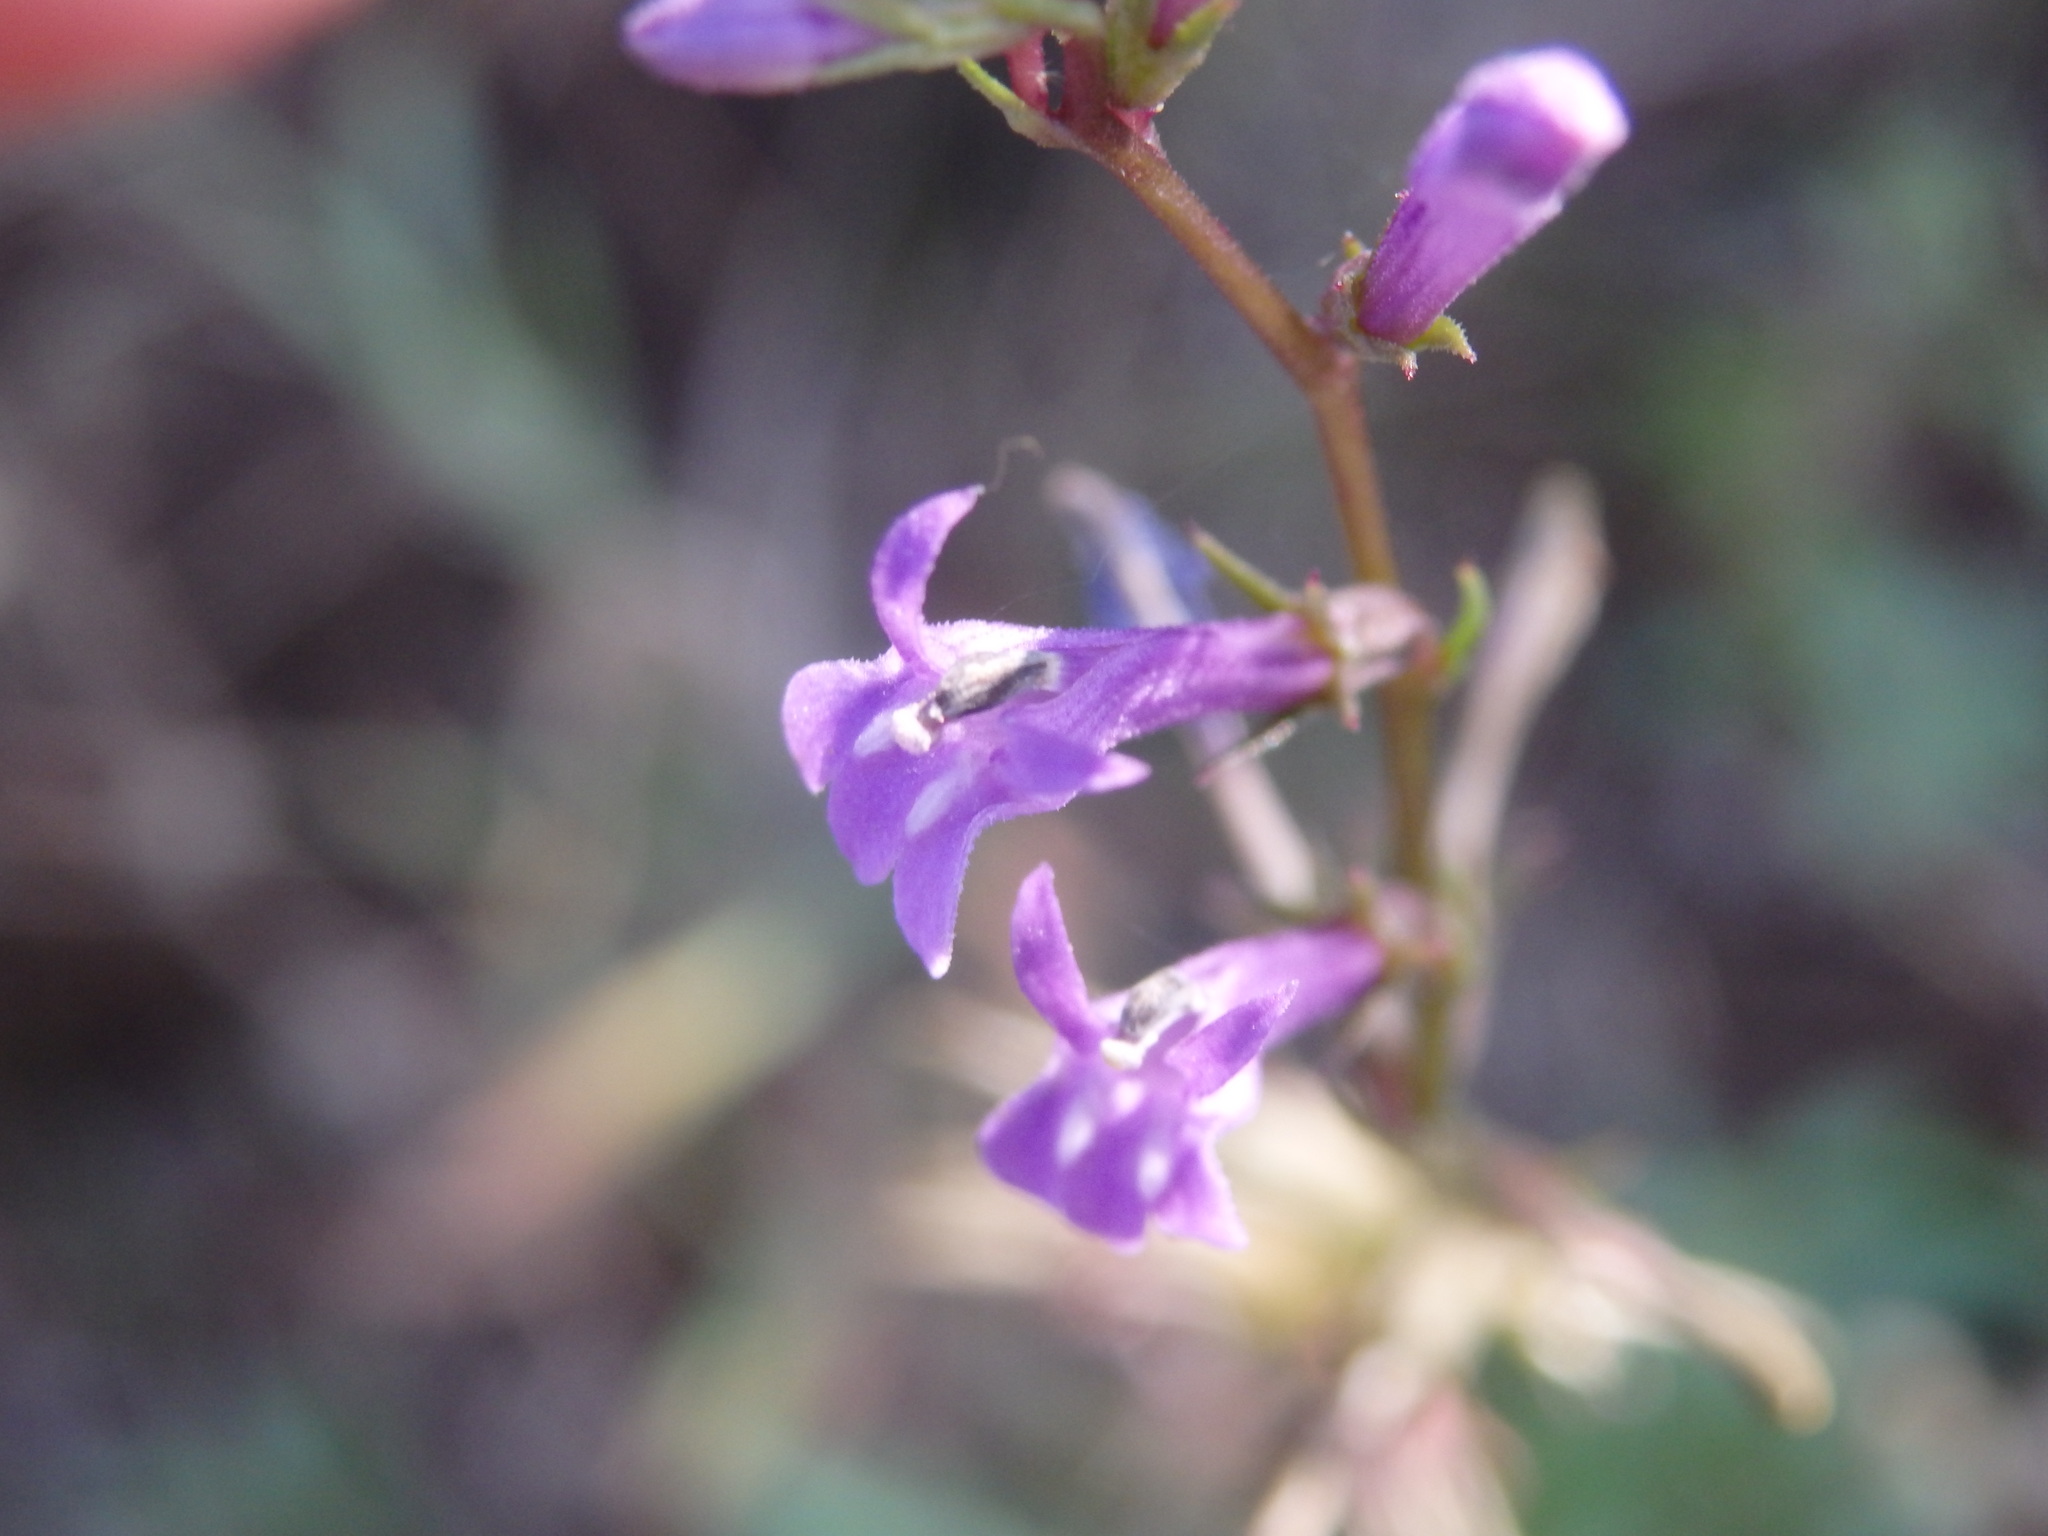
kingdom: Plantae
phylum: Tracheophyta
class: Magnoliopsida
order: Asterales
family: Campanulaceae
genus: Lobelia
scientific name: Lobelia urens
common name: Heath lobelia
